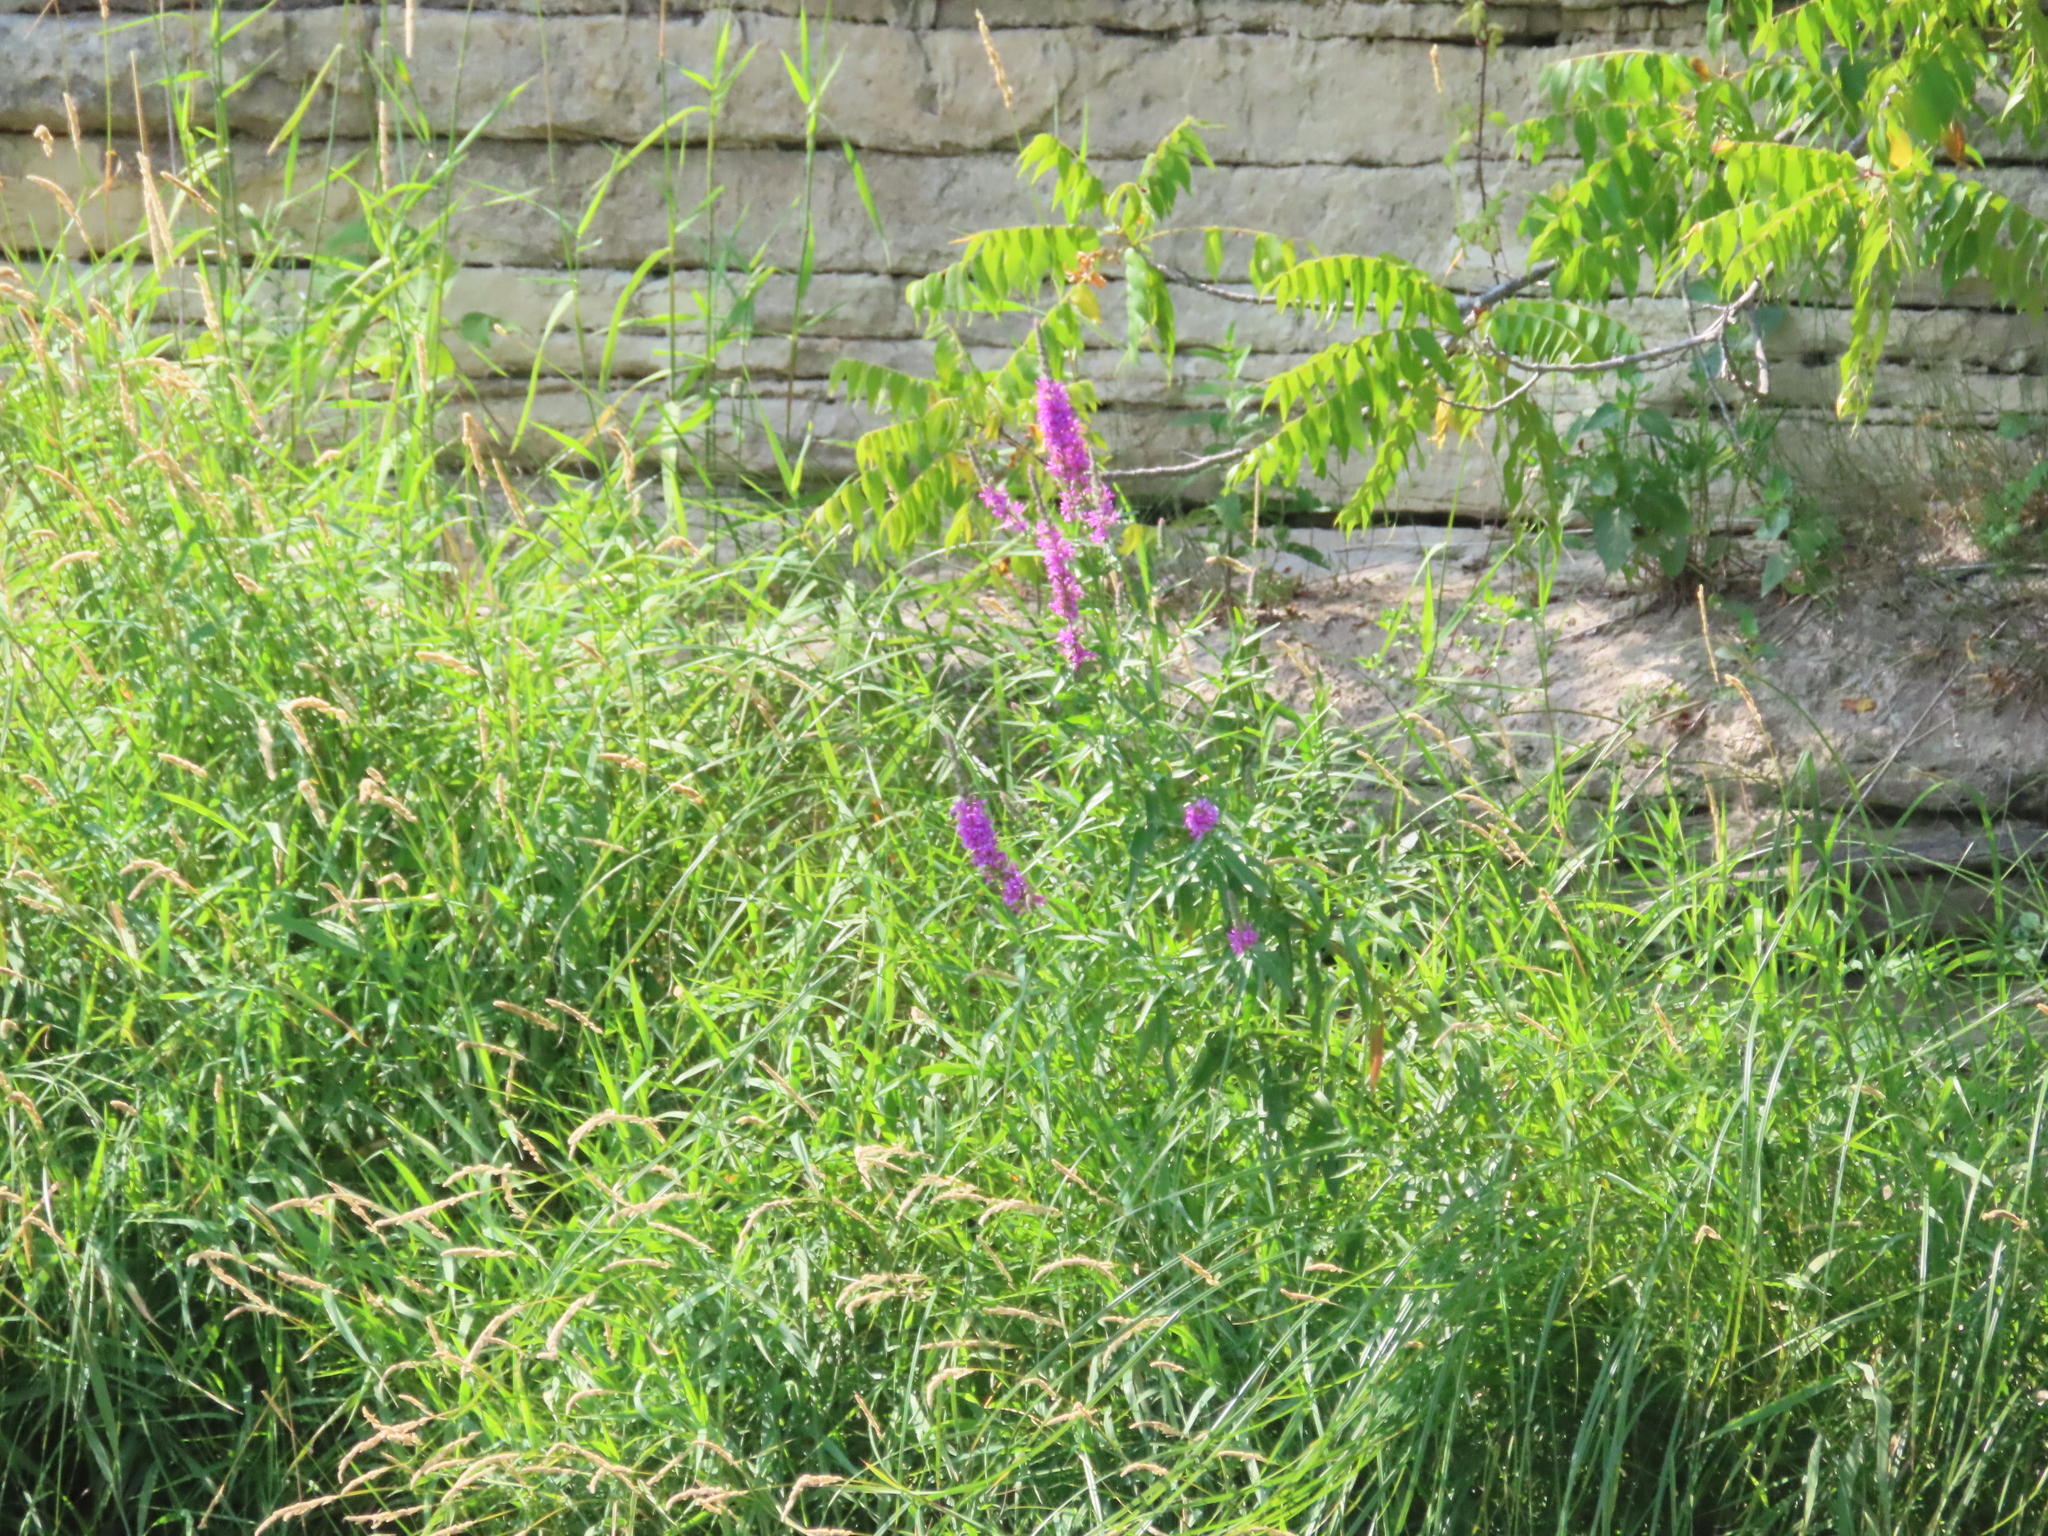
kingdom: Plantae
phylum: Tracheophyta
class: Magnoliopsida
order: Myrtales
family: Lythraceae
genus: Lythrum
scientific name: Lythrum salicaria
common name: Purple loosestrife
